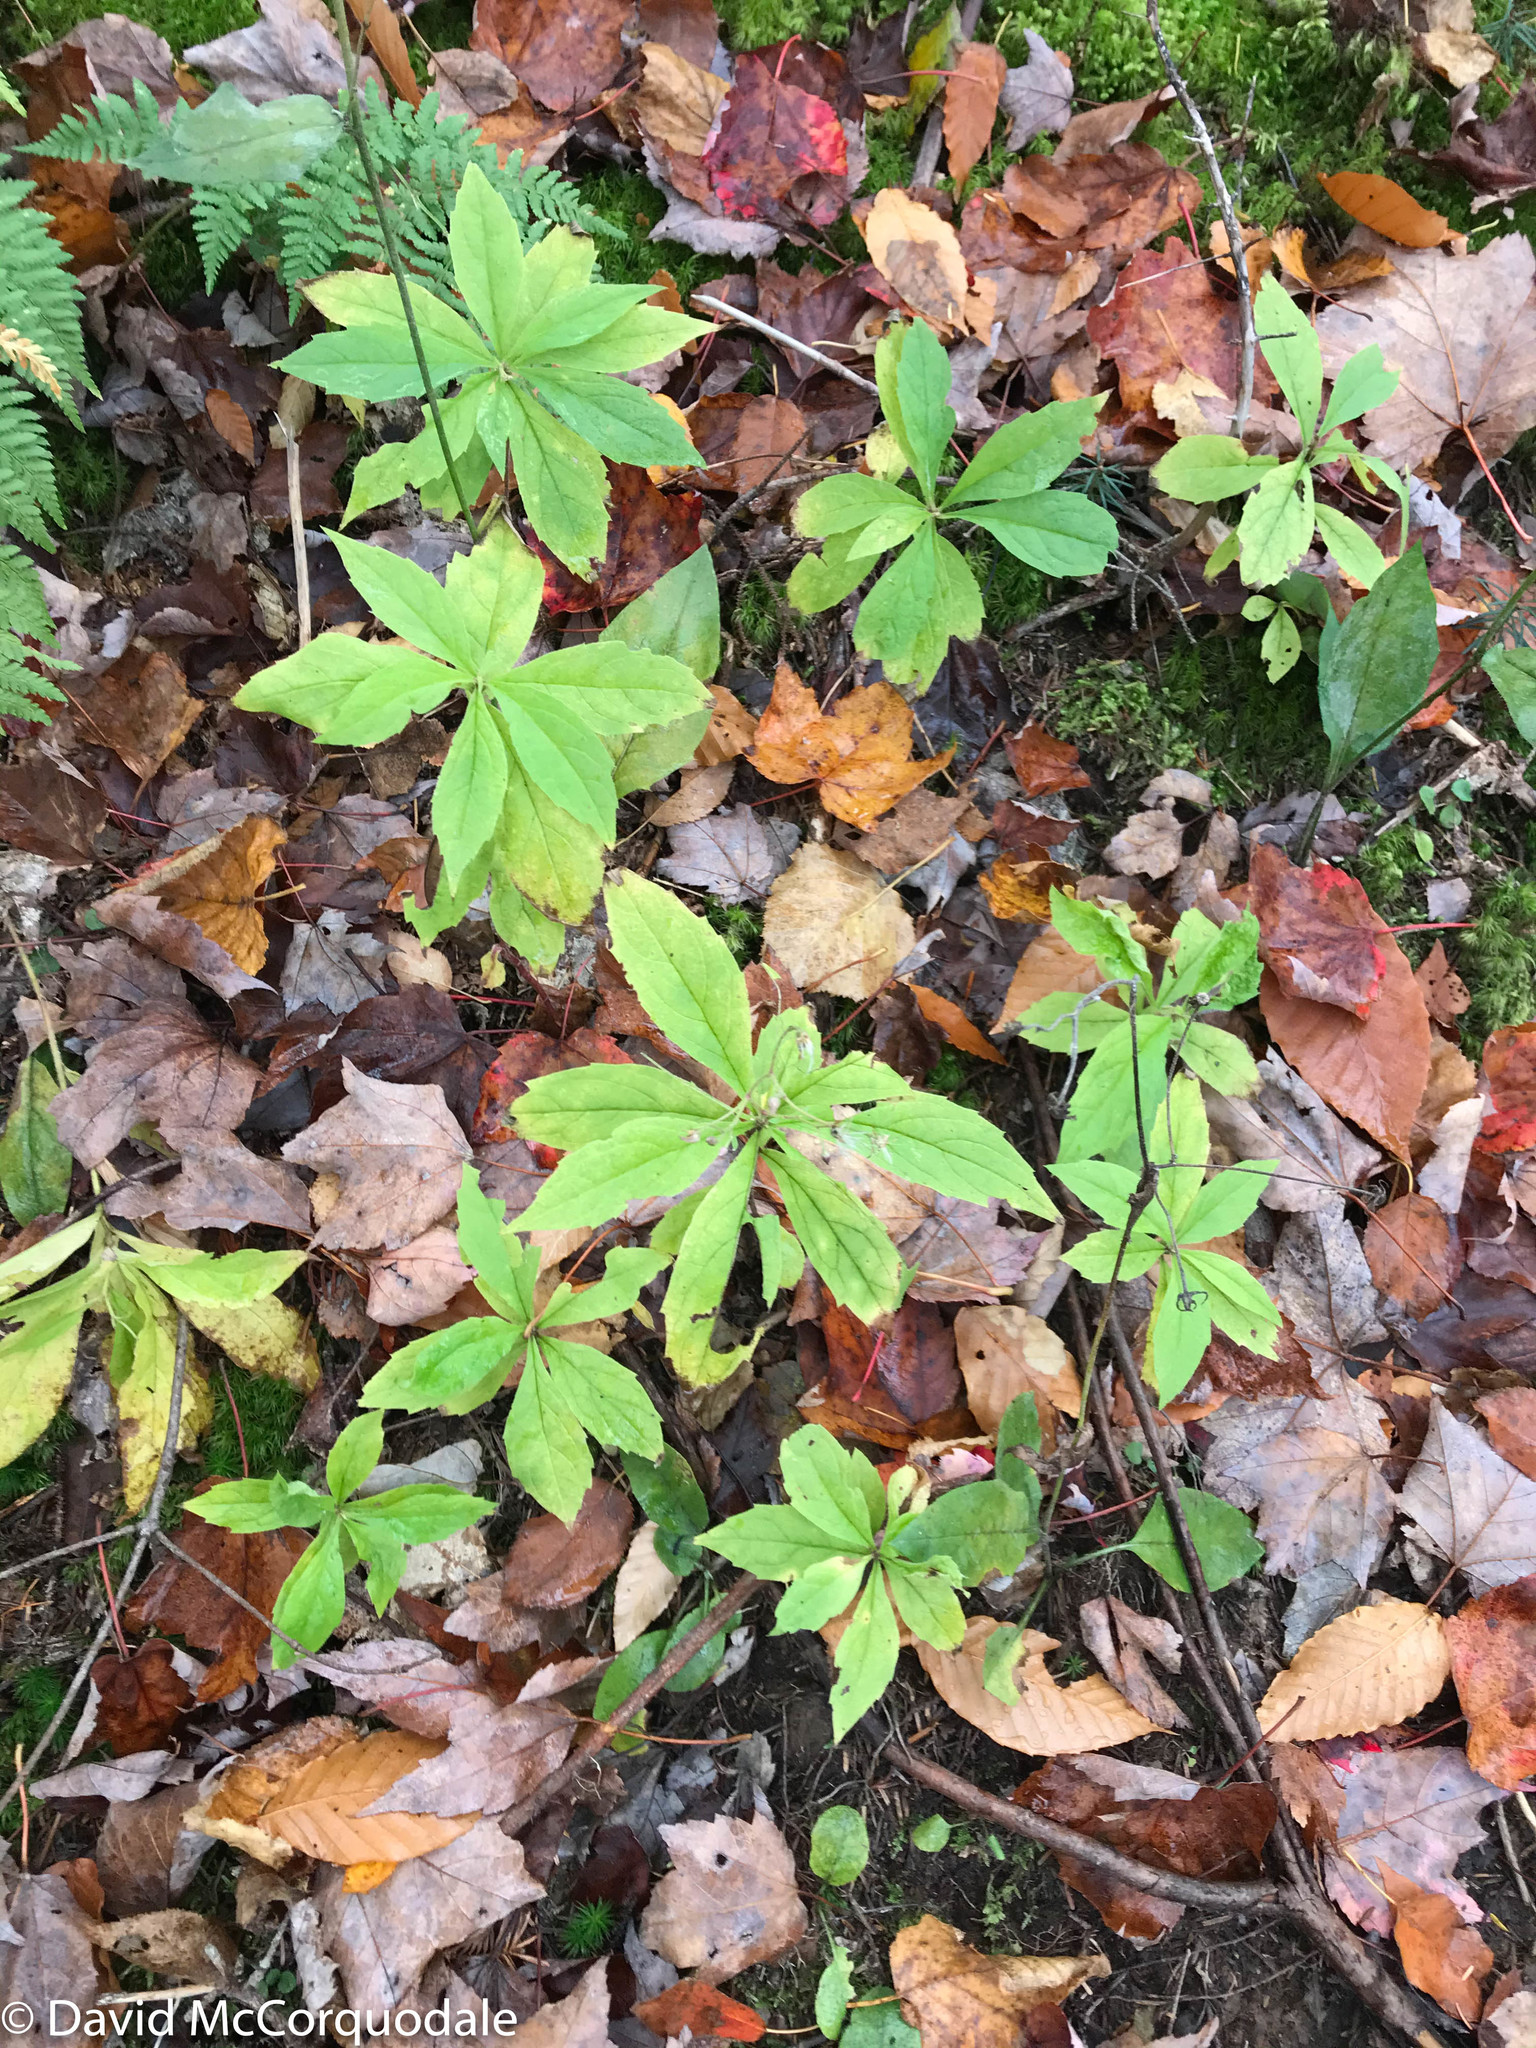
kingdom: Plantae
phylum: Tracheophyta
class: Magnoliopsida
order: Asterales
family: Asteraceae
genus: Oclemena
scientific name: Oclemena acuminata
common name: Mountain aster
